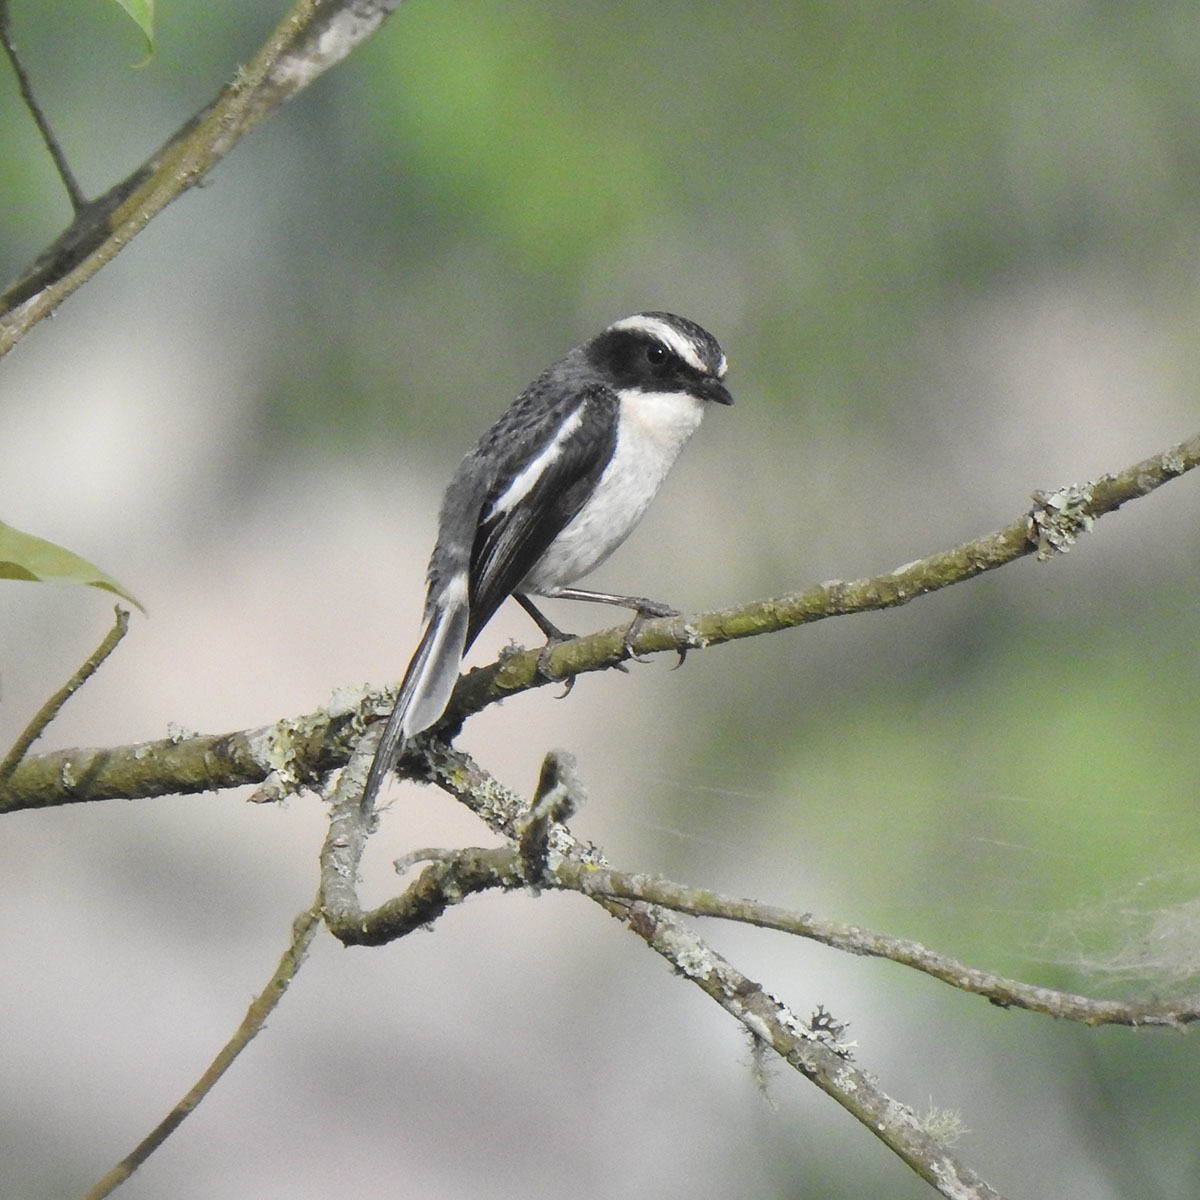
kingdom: Animalia
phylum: Chordata
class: Aves
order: Passeriformes
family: Muscicapidae
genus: Saxicola
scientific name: Saxicola ferreus
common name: Grey bush chat
